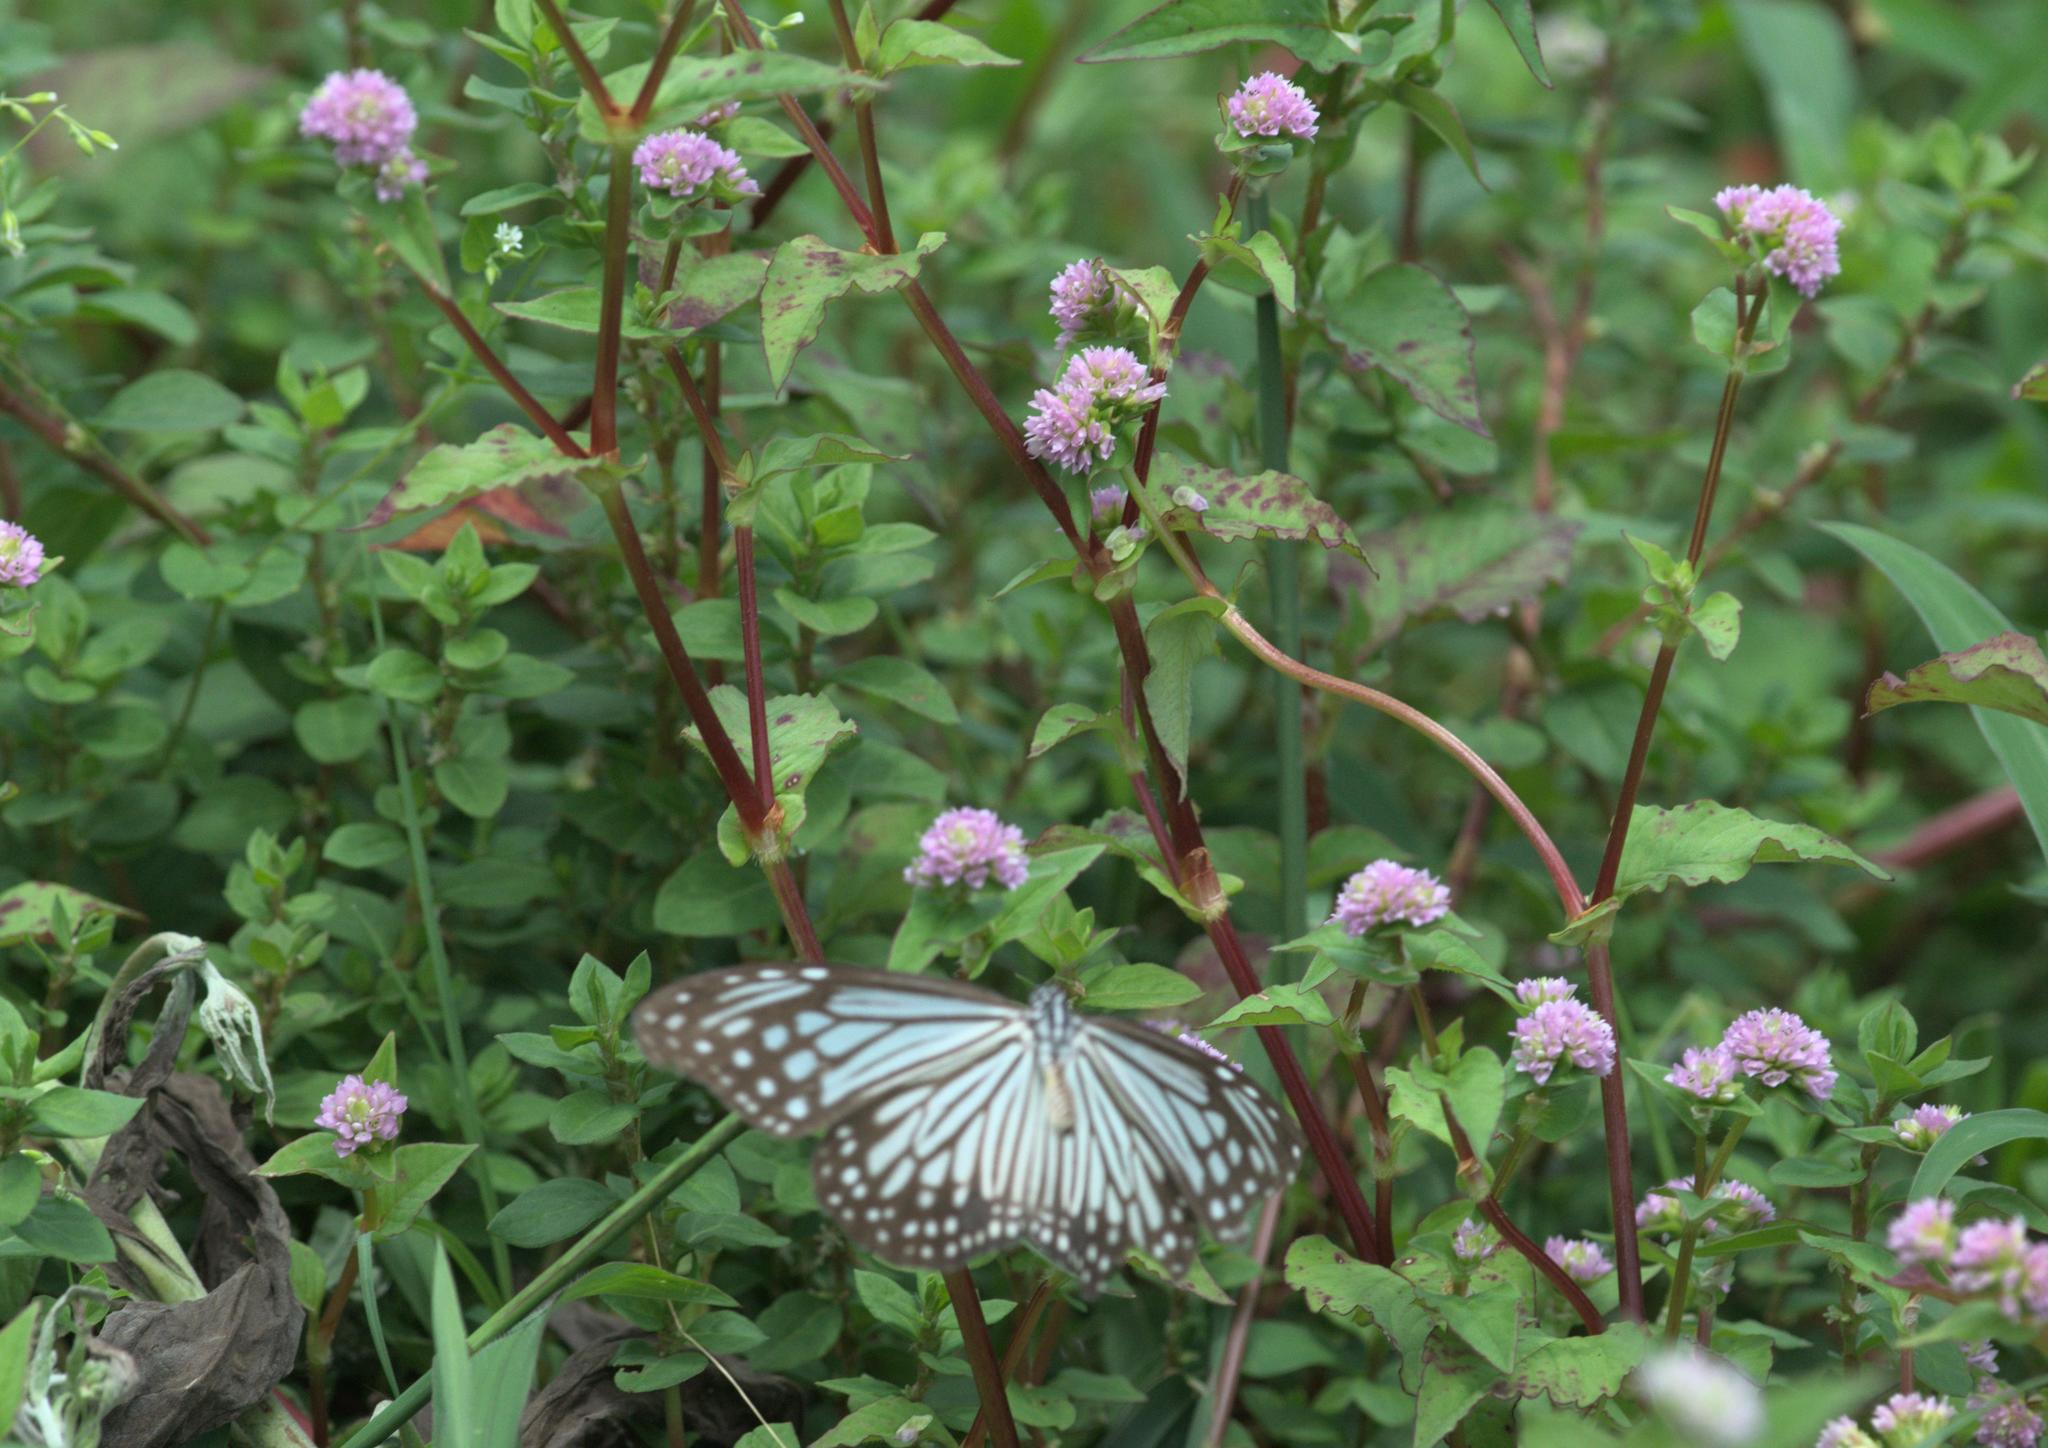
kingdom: Animalia
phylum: Arthropoda
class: Insecta
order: Lepidoptera
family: Nymphalidae
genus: Parantica
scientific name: Parantica aglea
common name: Glassy tiger
